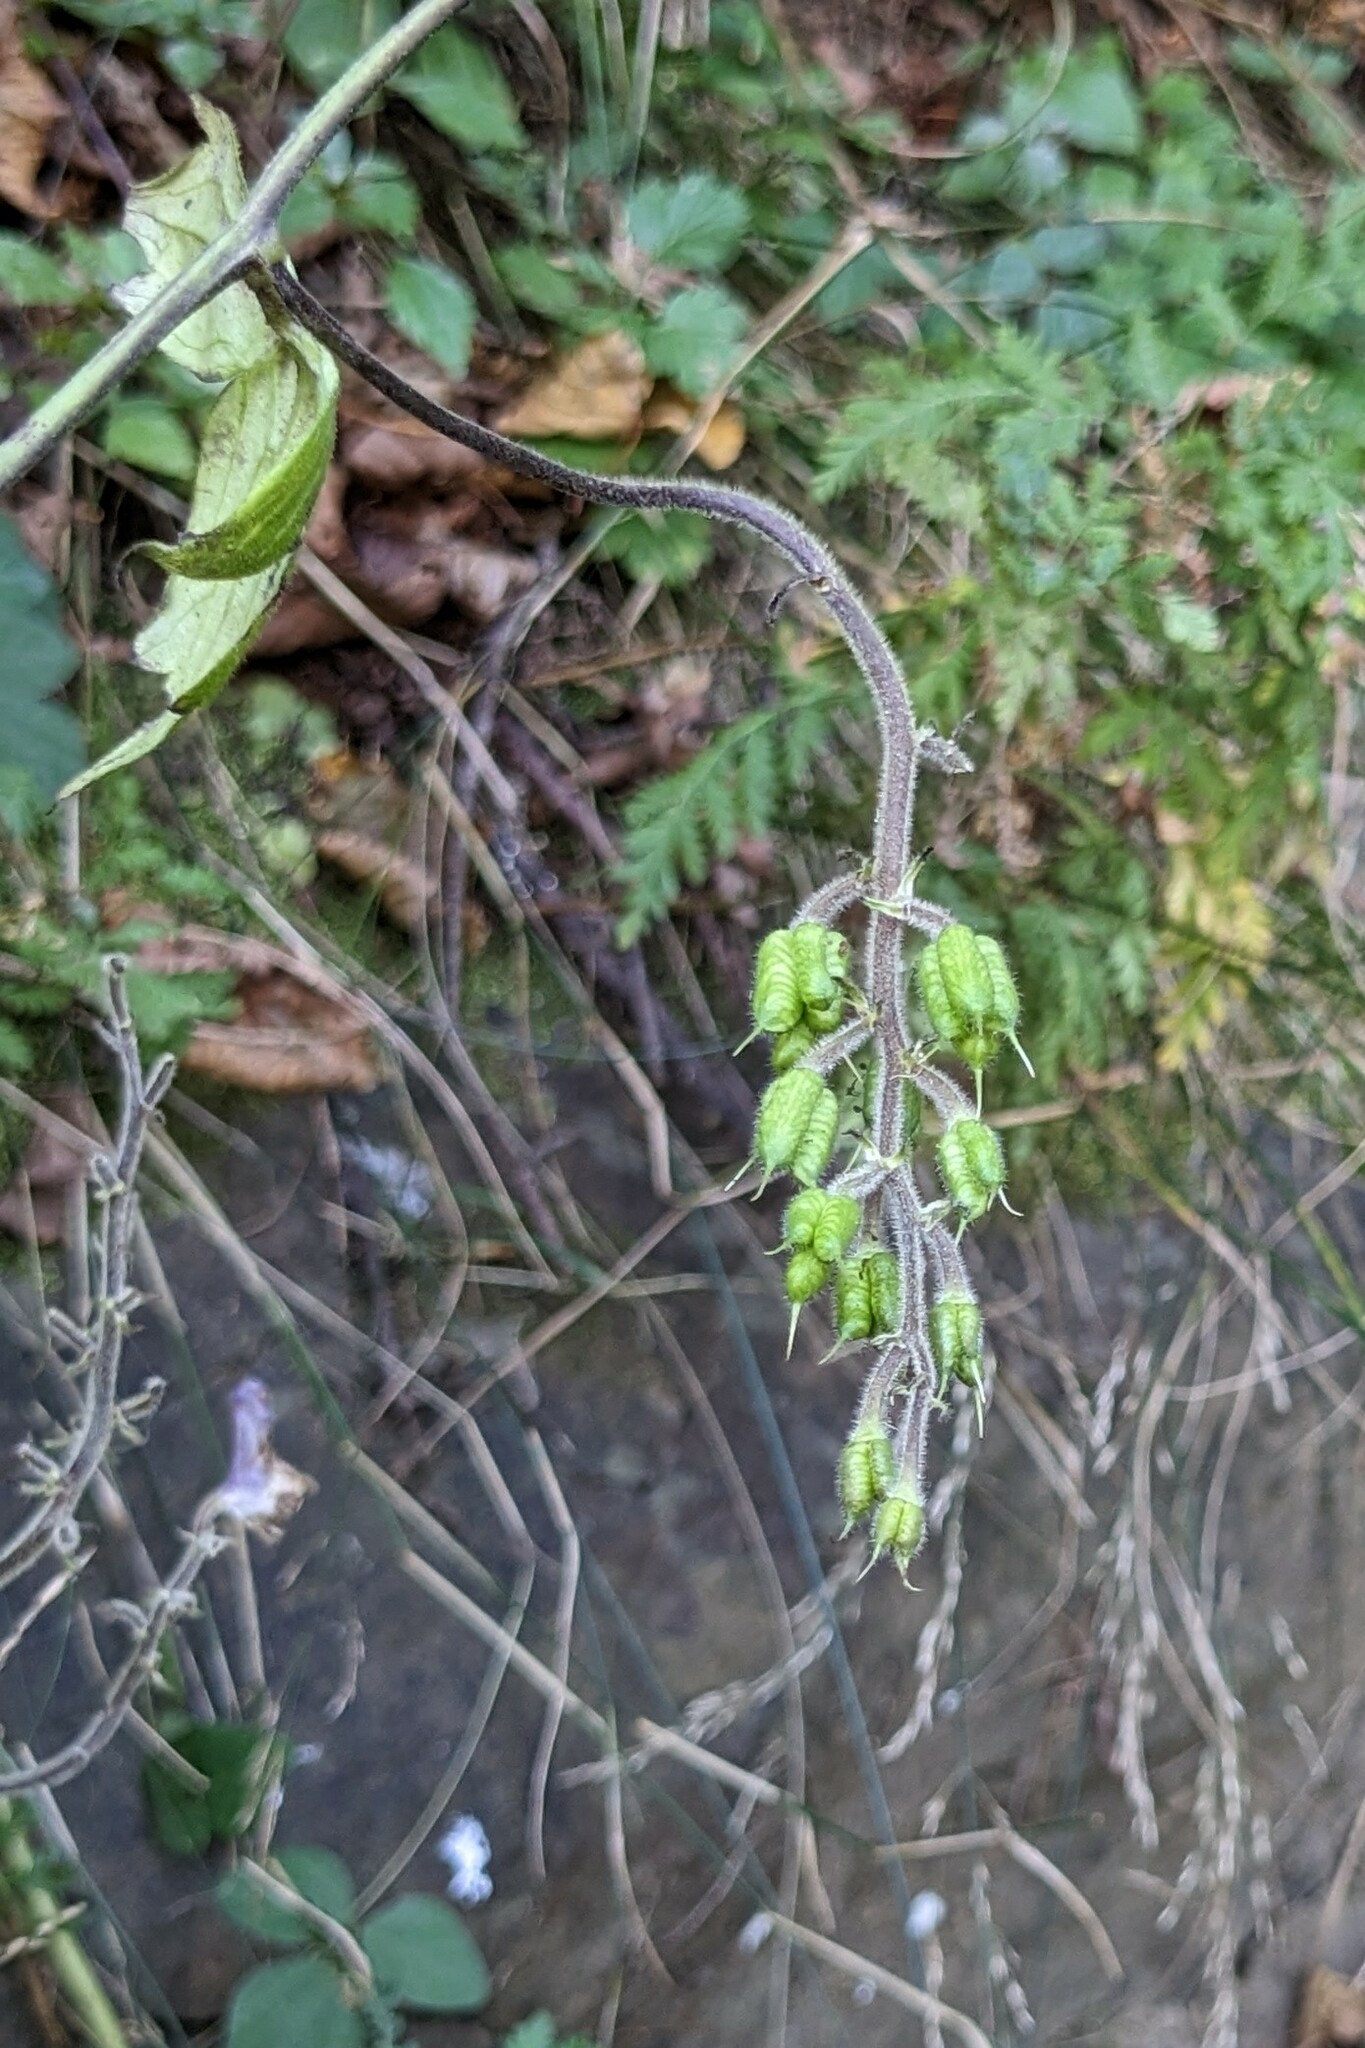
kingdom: Plantae
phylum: Tracheophyta
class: Magnoliopsida
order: Ranunculales
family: Ranunculaceae
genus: Aconitum
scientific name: Aconitum alboviolaceum
